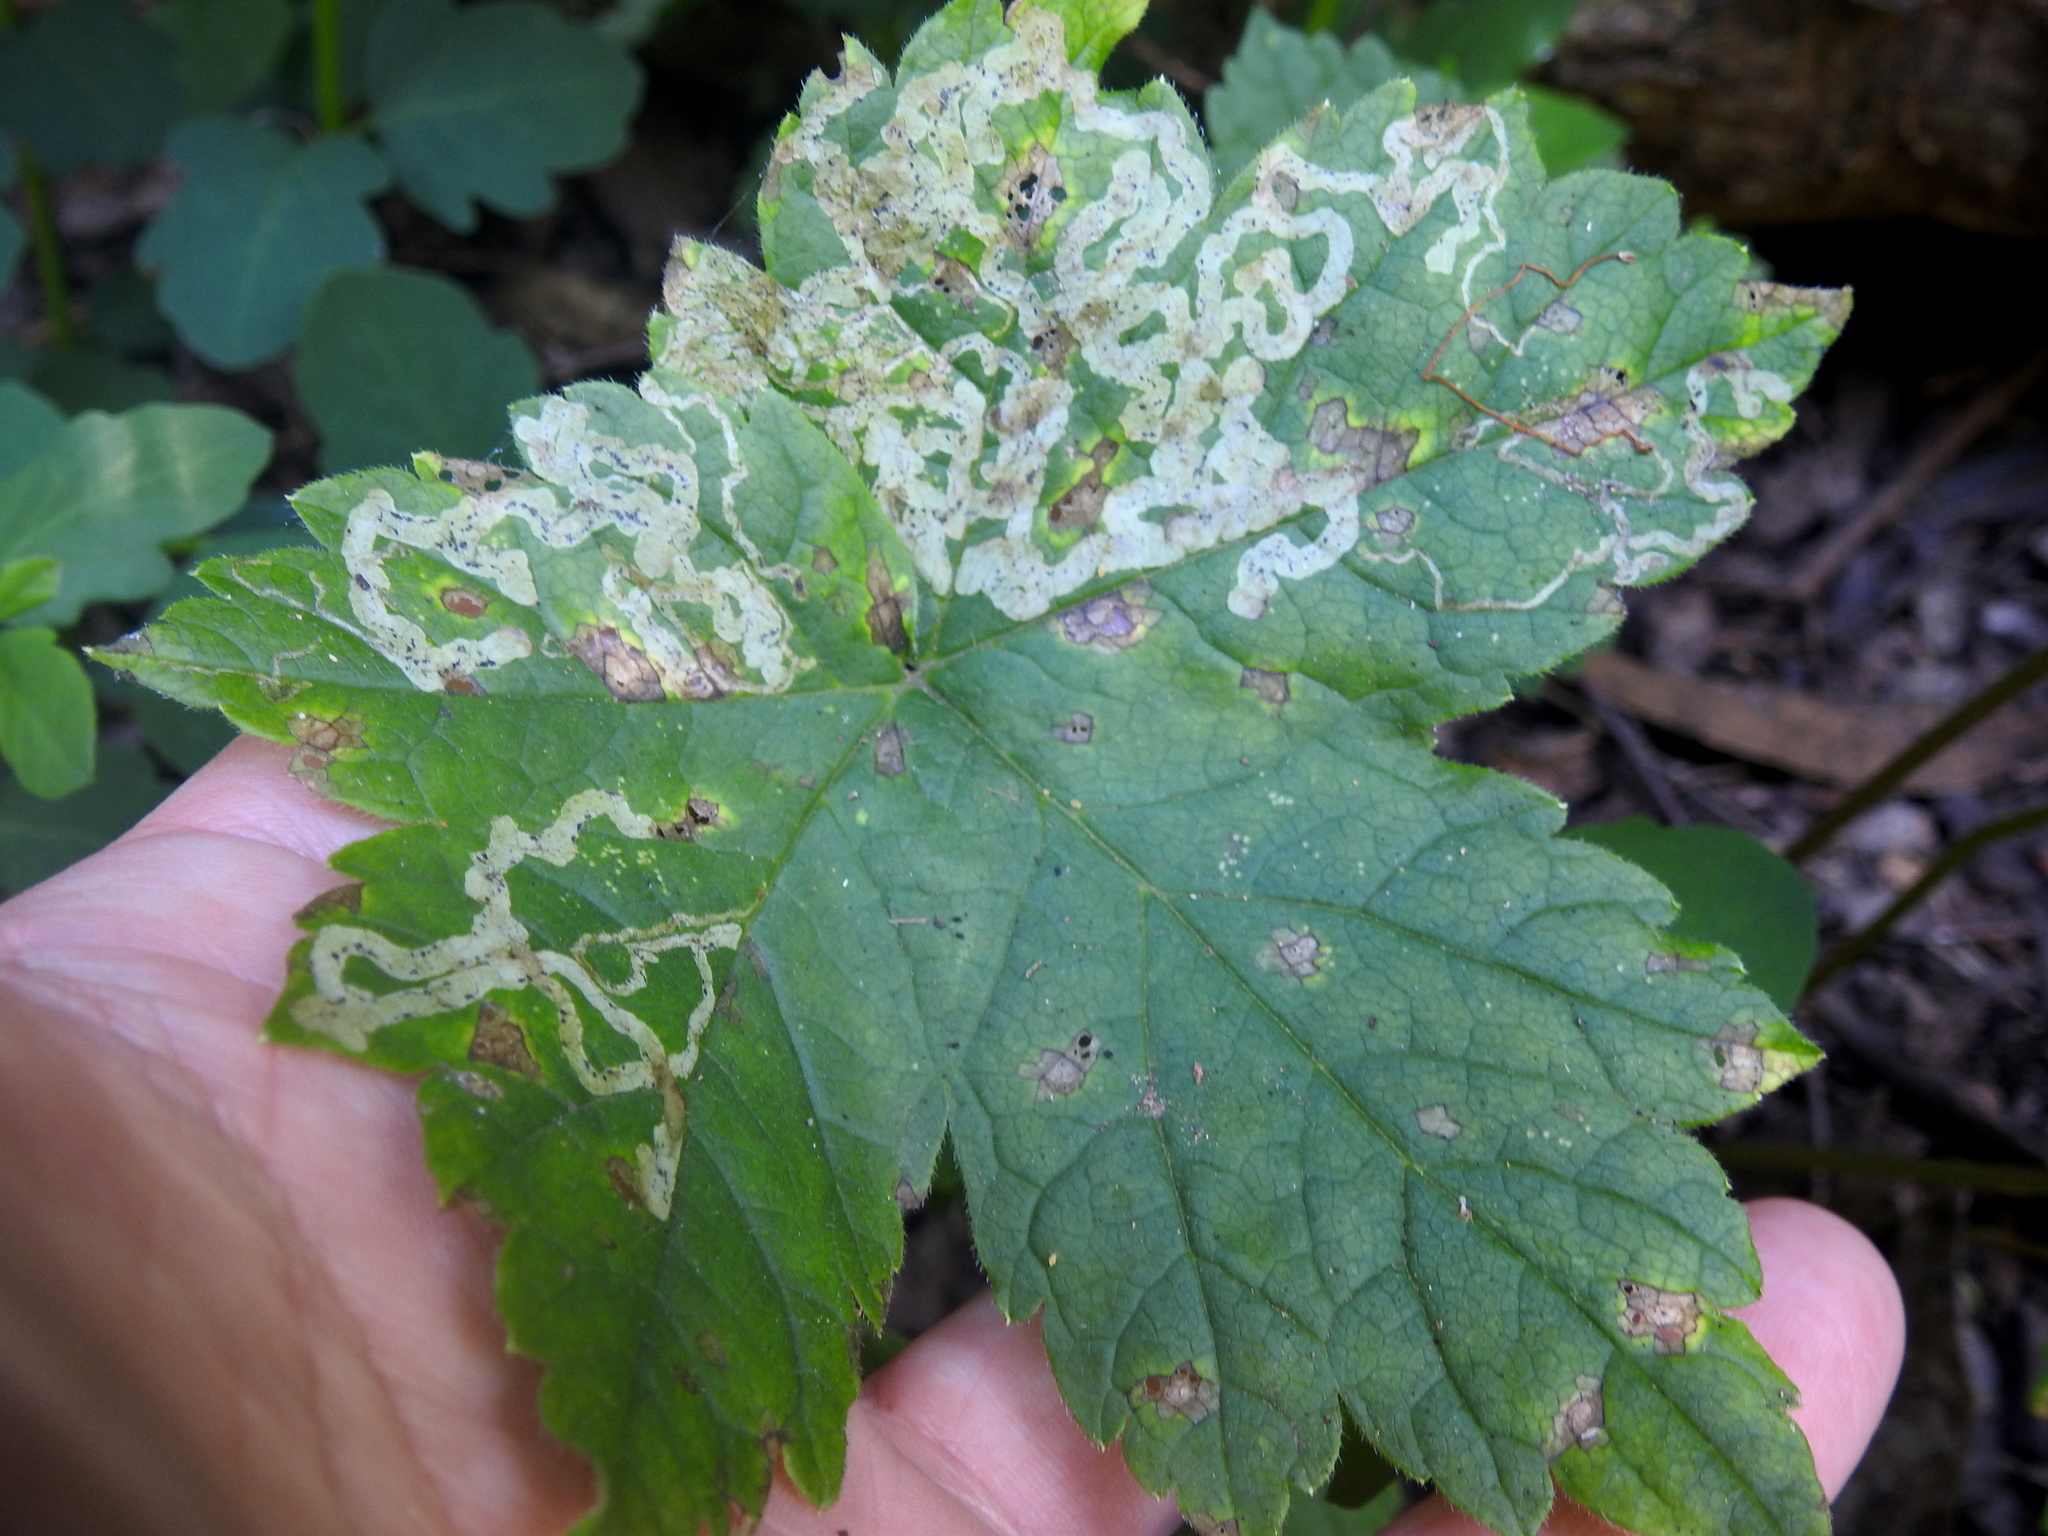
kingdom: Animalia
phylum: Arthropoda
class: Insecta
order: Diptera
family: Agromyzidae
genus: Phytomyza
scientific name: Phytomyza tiarellae
